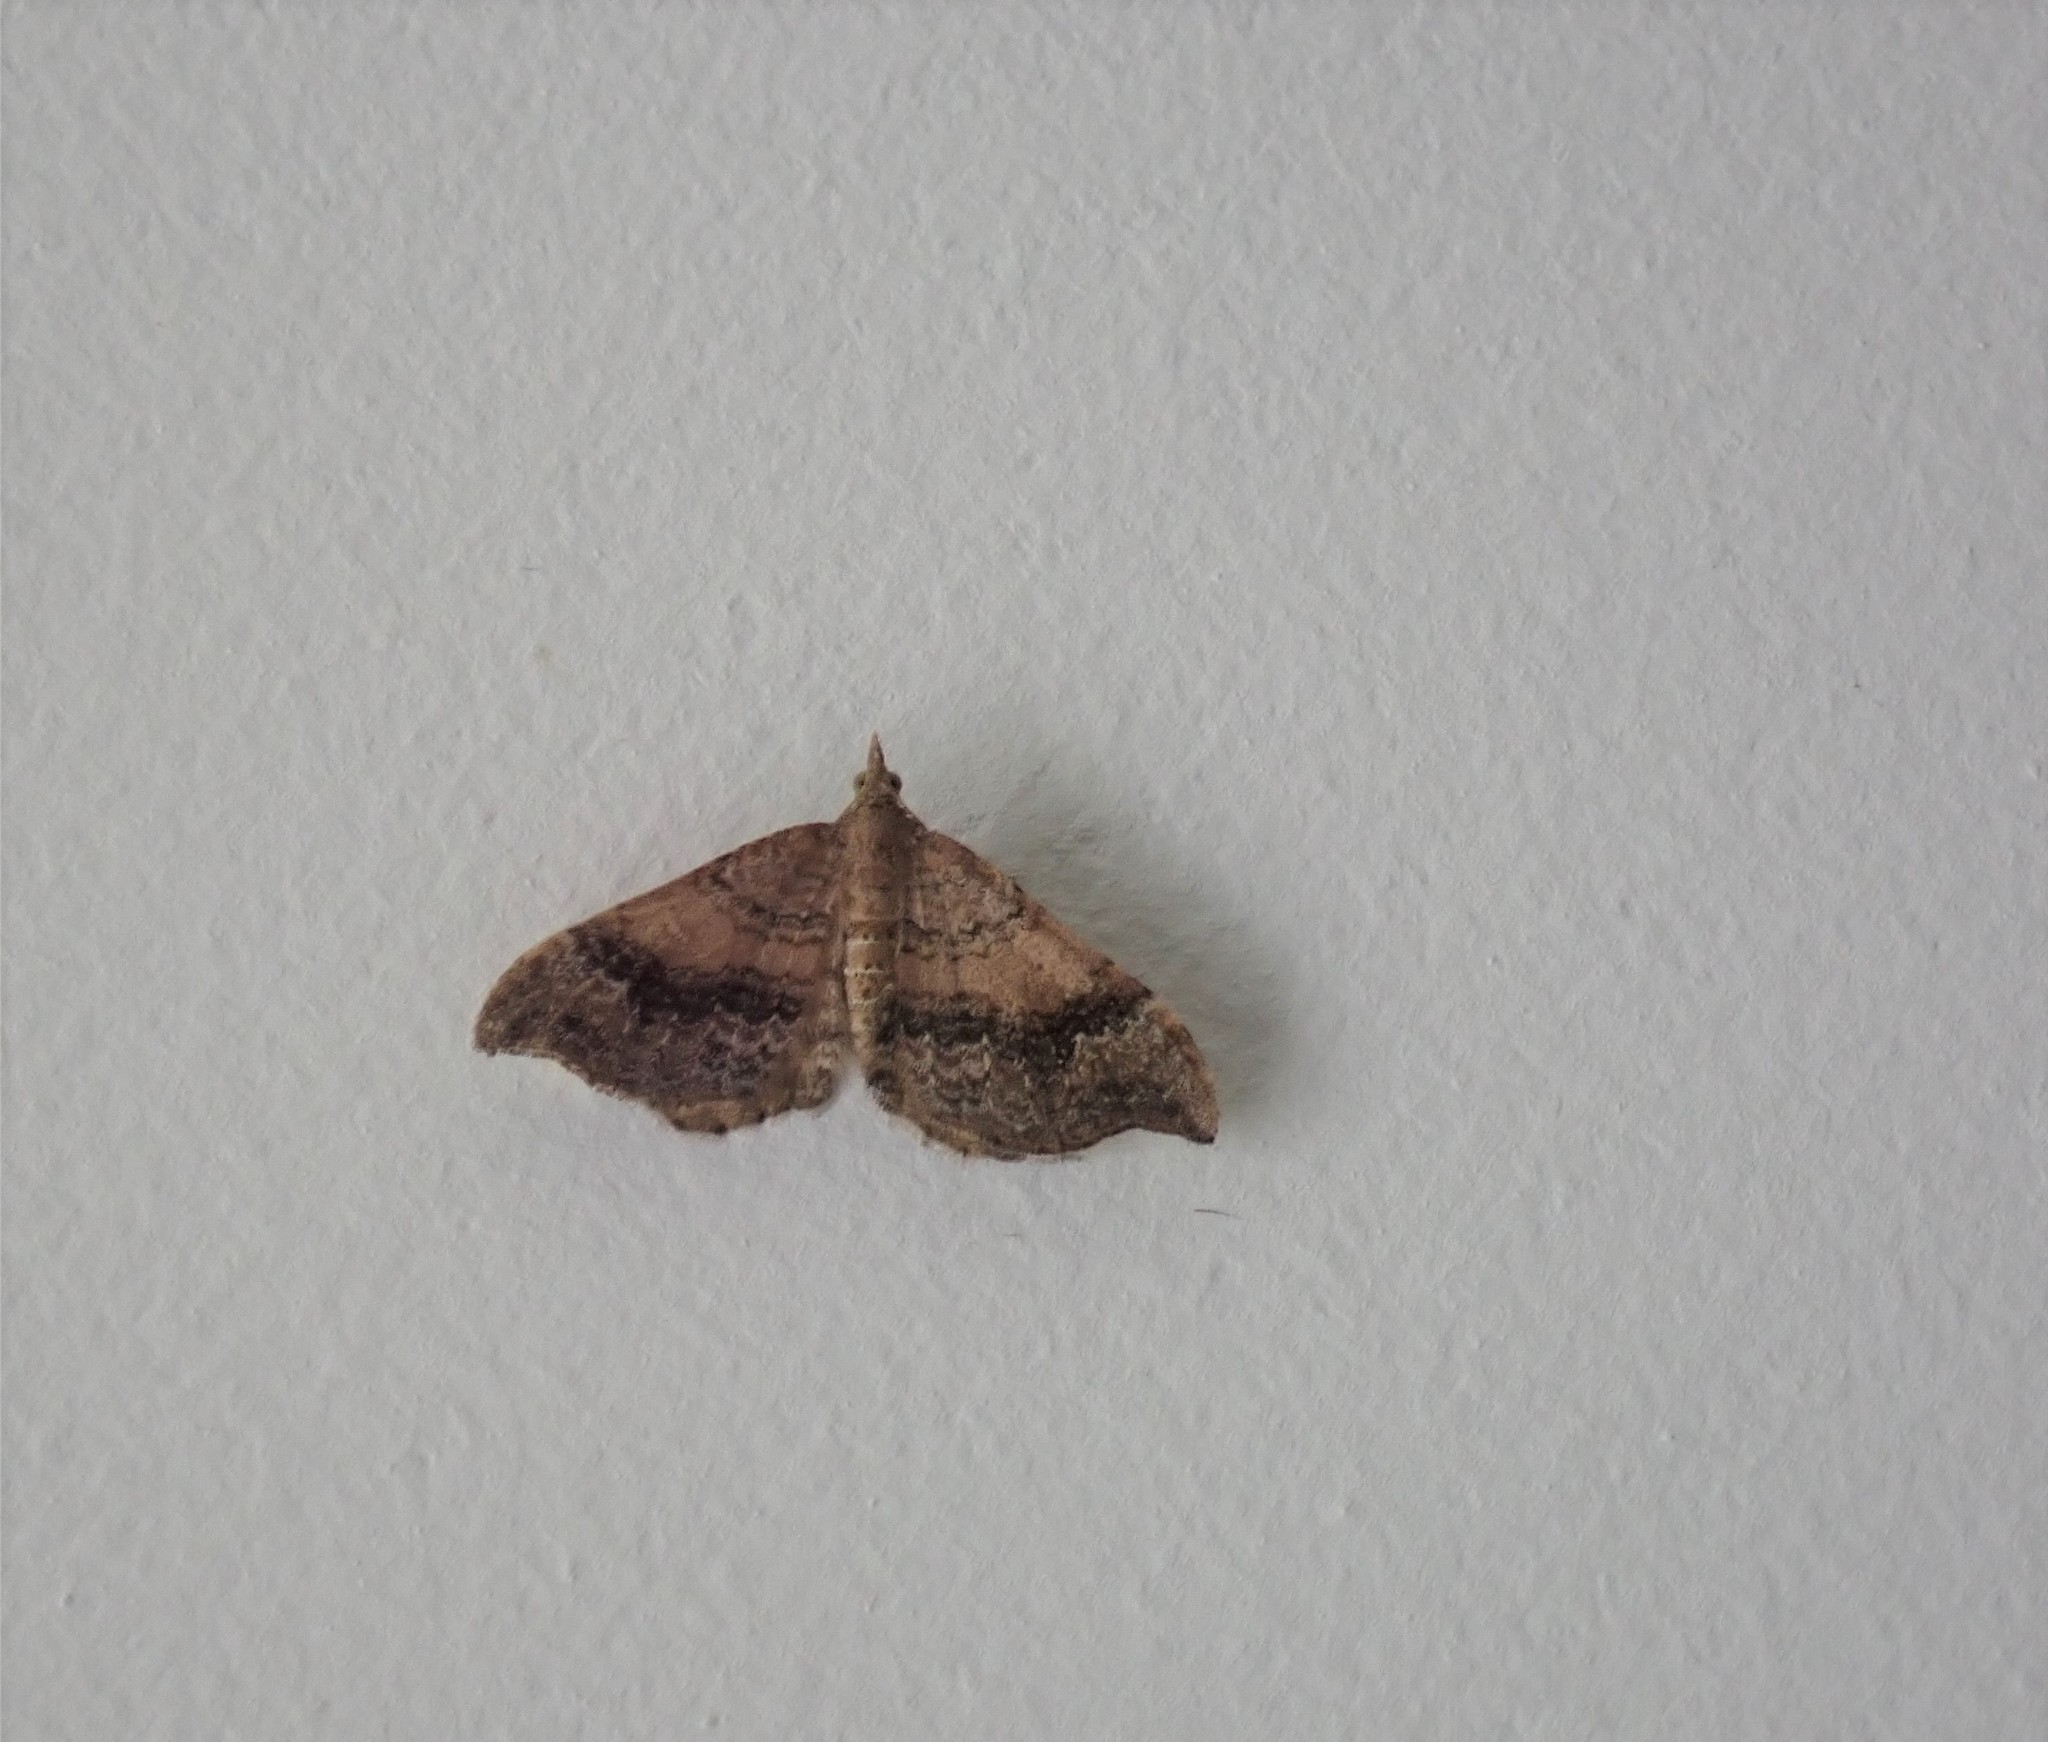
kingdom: Animalia
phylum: Arthropoda
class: Insecta
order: Lepidoptera
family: Geometridae
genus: Homodotis
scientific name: Homodotis megaspilata
